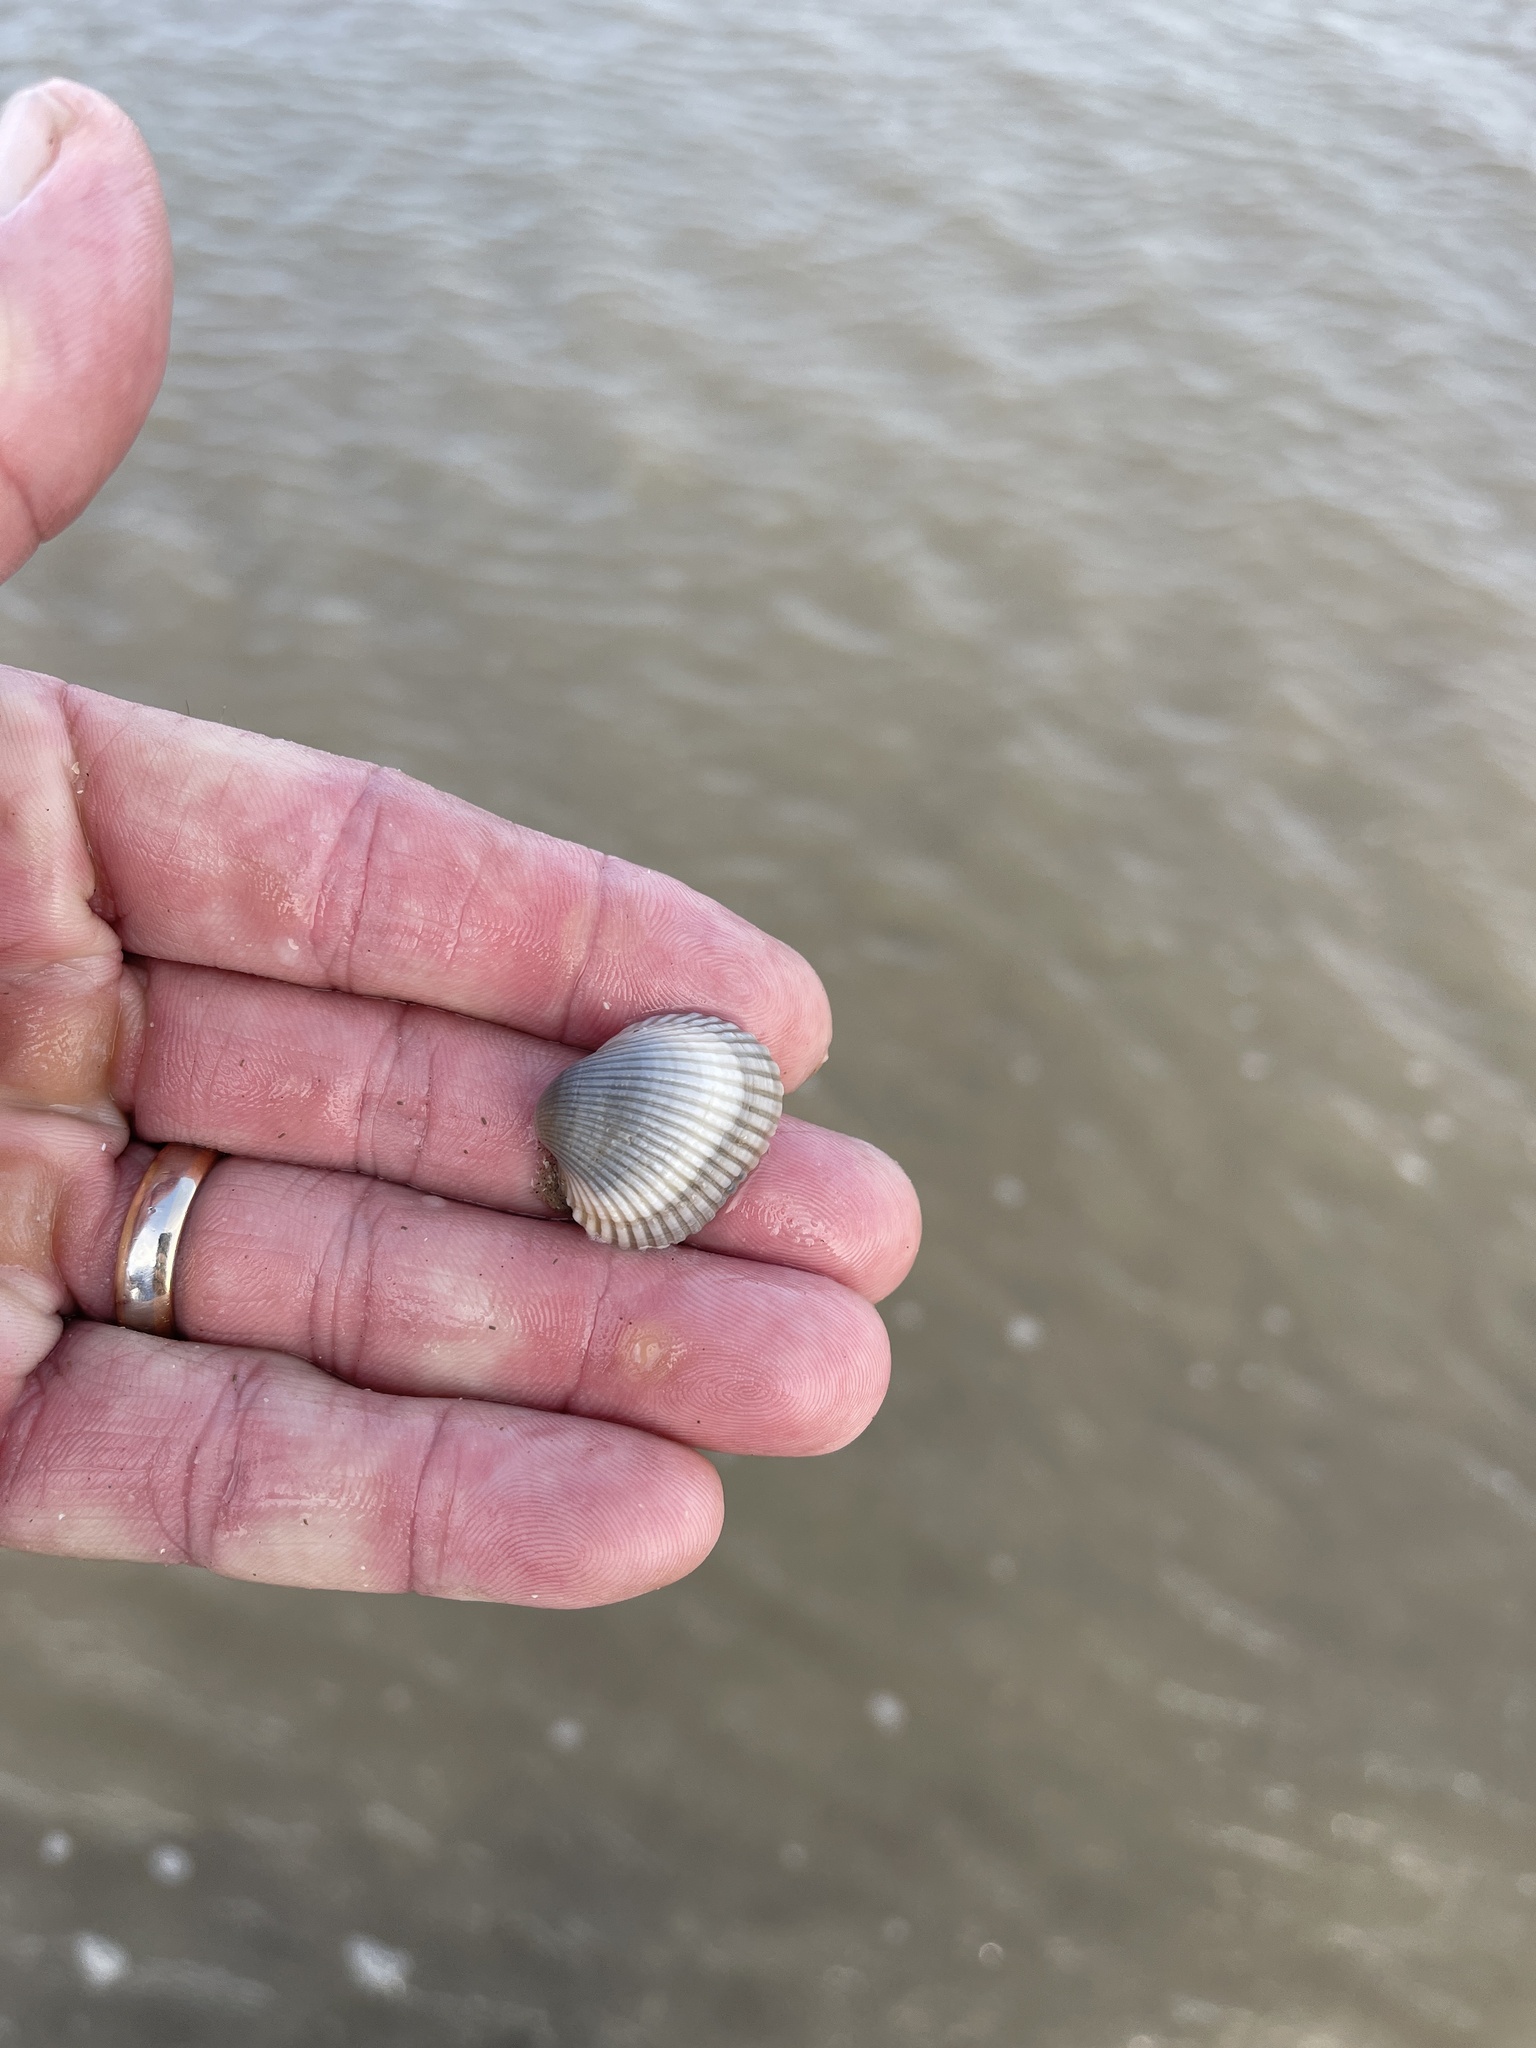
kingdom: Animalia
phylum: Mollusca
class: Bivalvia
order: Arcida
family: Arcidae
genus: Lunarca
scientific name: Lunarca ovalis
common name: Blood ark
